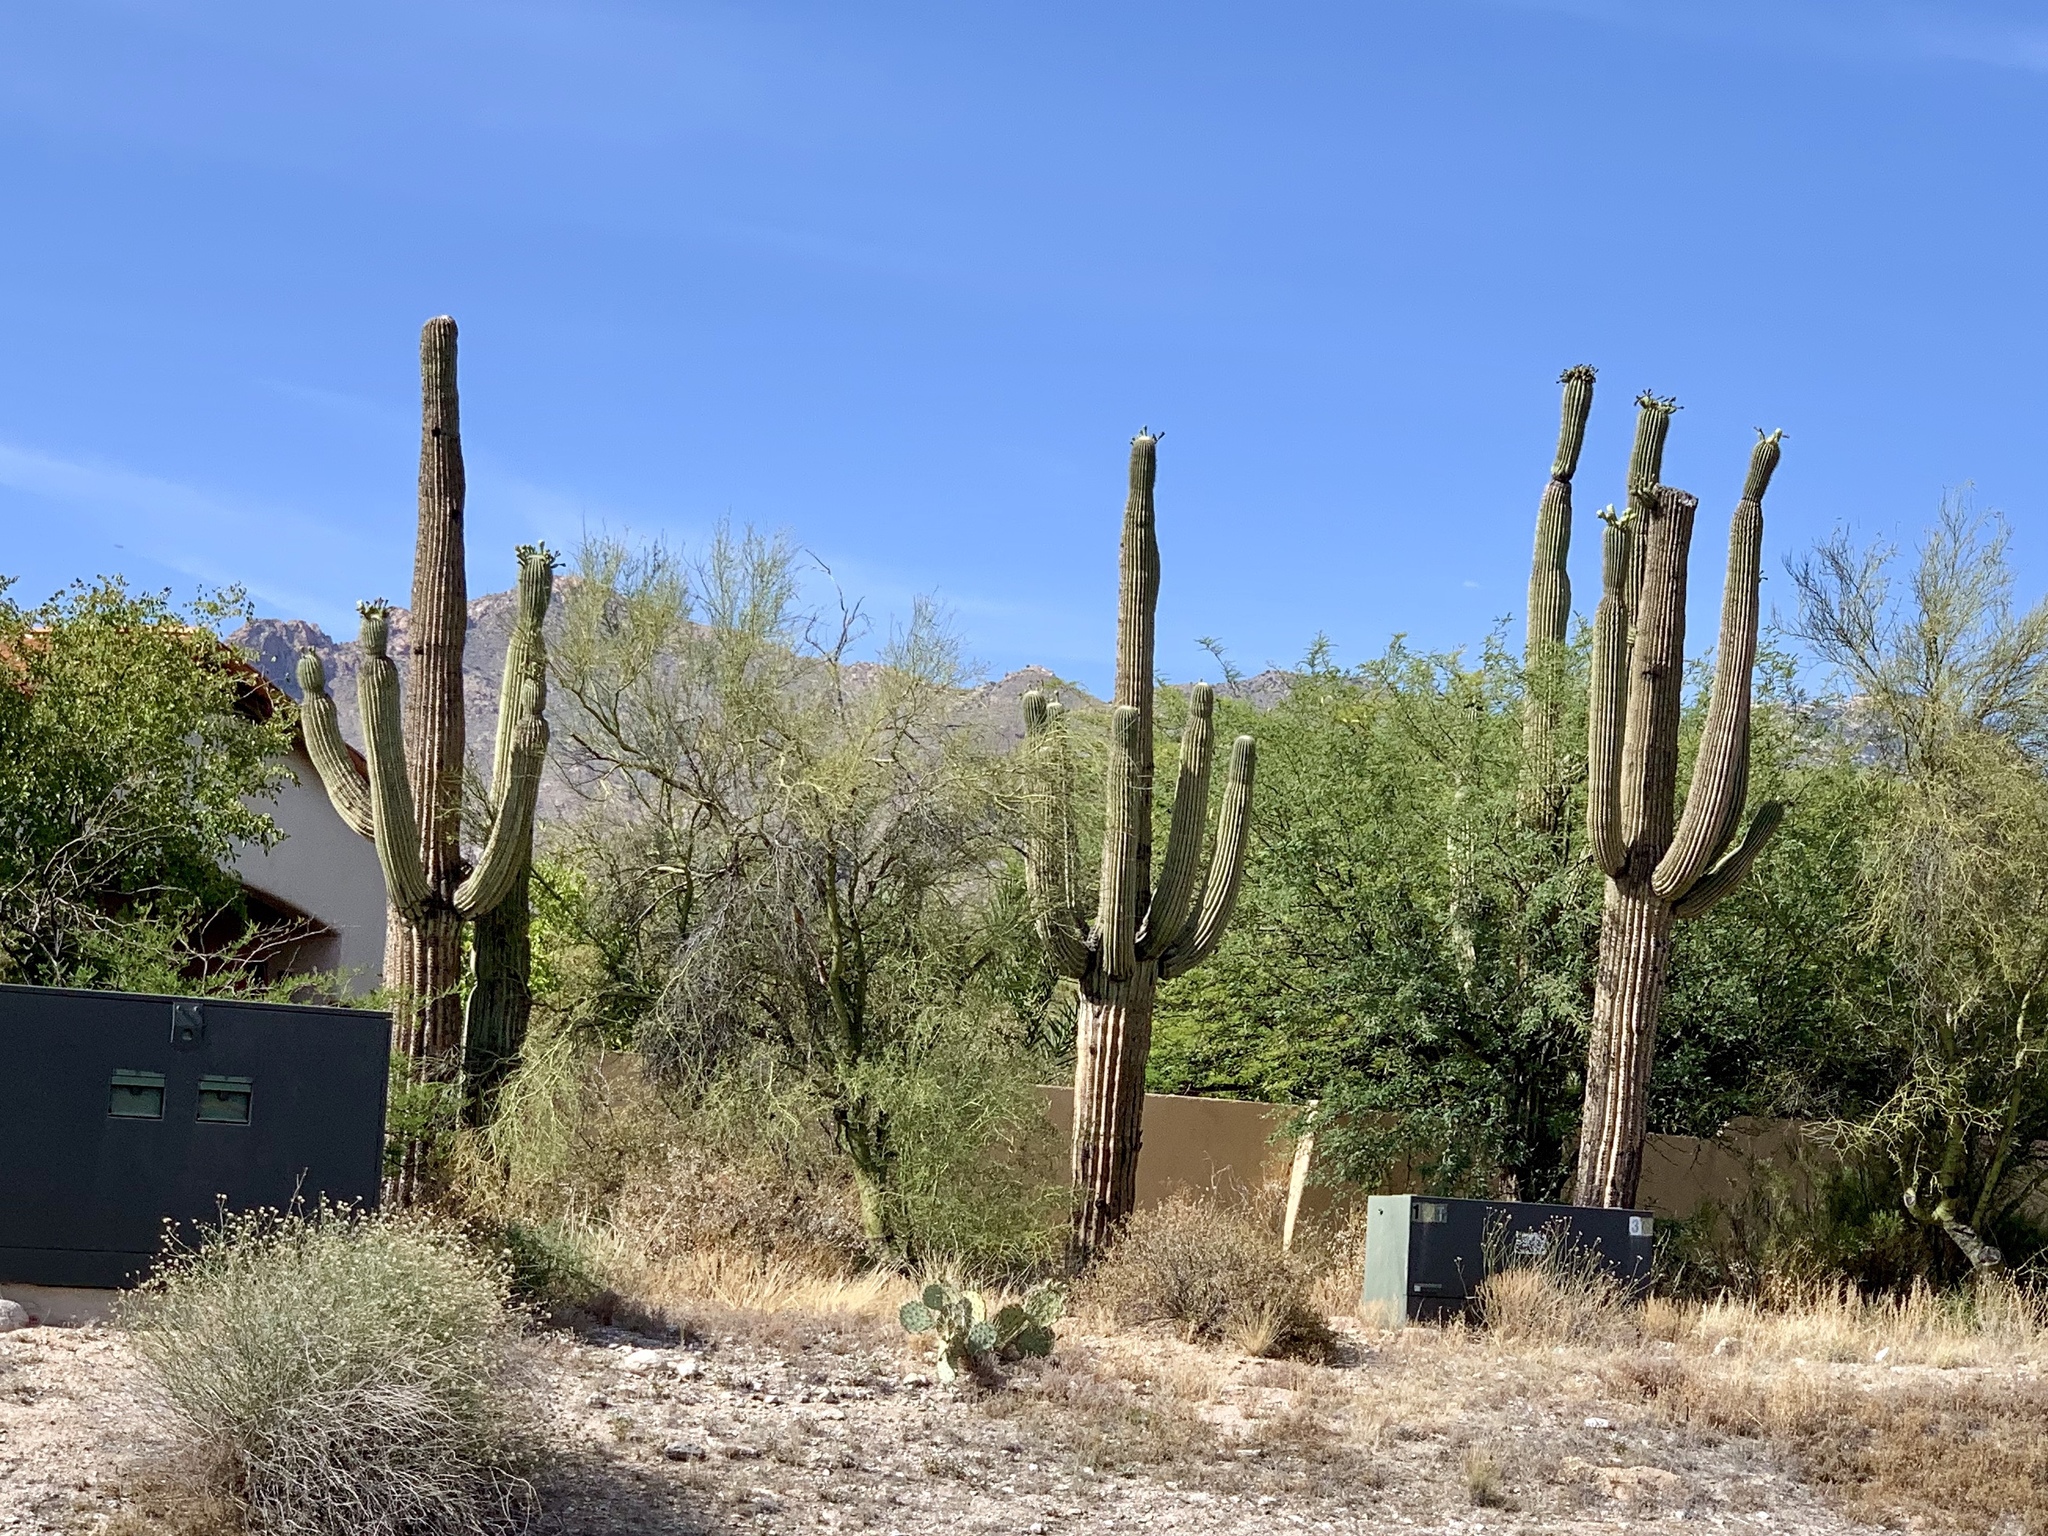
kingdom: Plantae
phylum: Tracheophyta
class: Magnoliopsida
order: Caryophyllales
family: Cactaceae
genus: Carnegiea
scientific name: Carnegiea gigantea
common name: Saguaro
